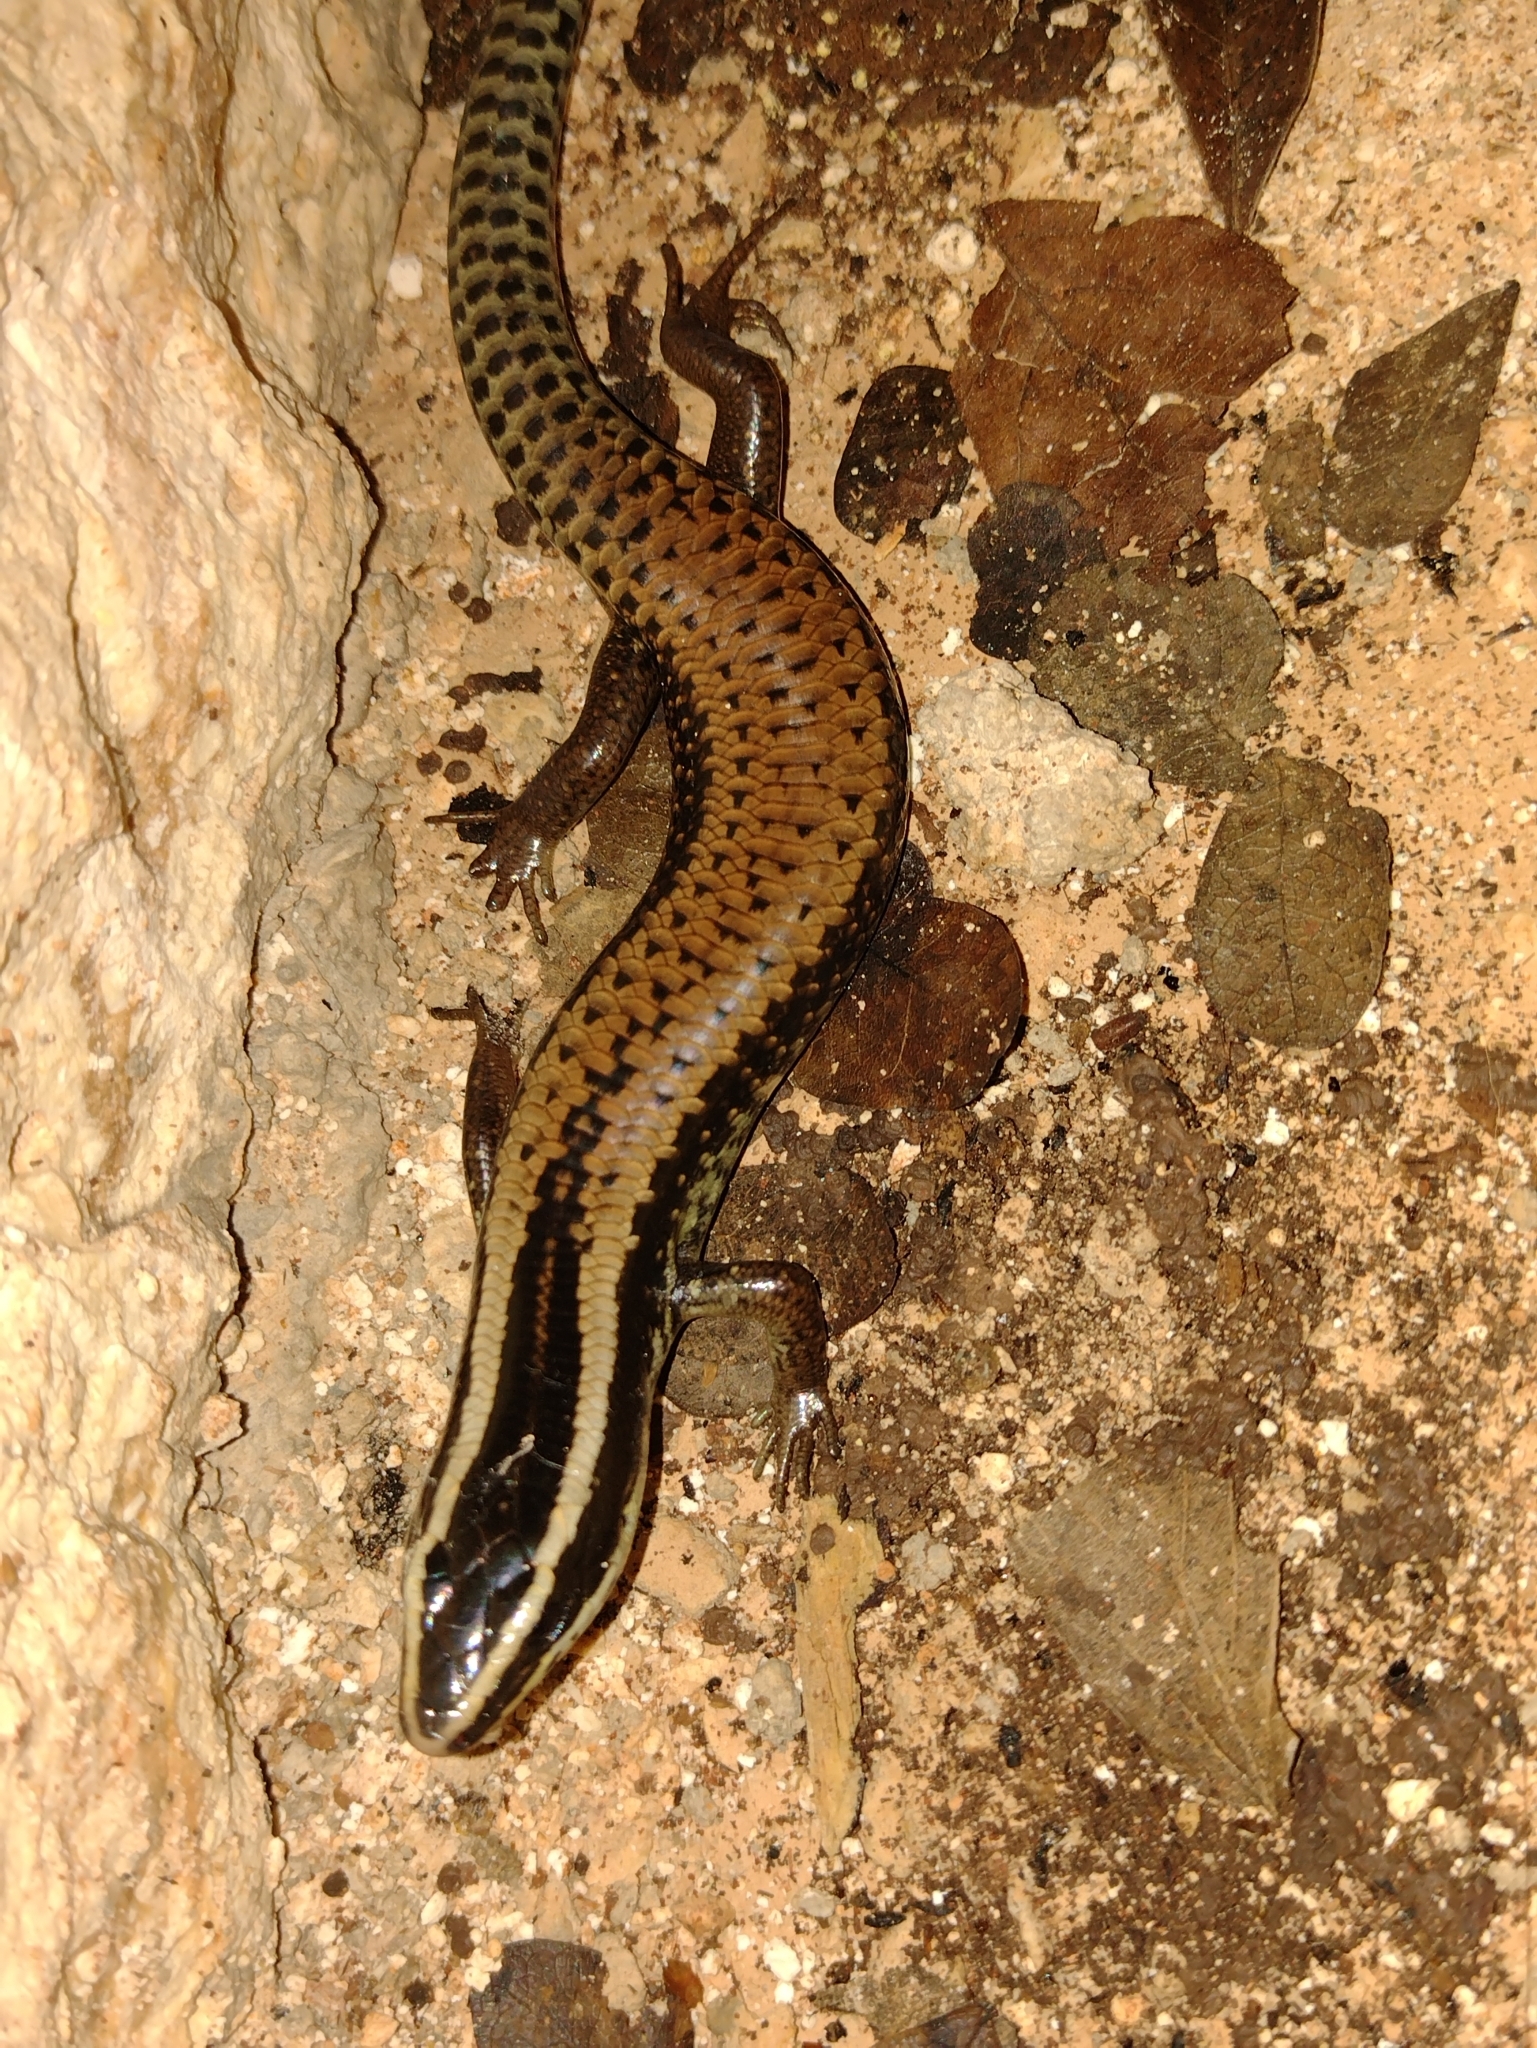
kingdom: Animalia
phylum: Chordata
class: Squamata
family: Scincidae
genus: Mesoscincus
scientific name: Mesoscincus schwartzei
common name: Mayan black-headed skink
